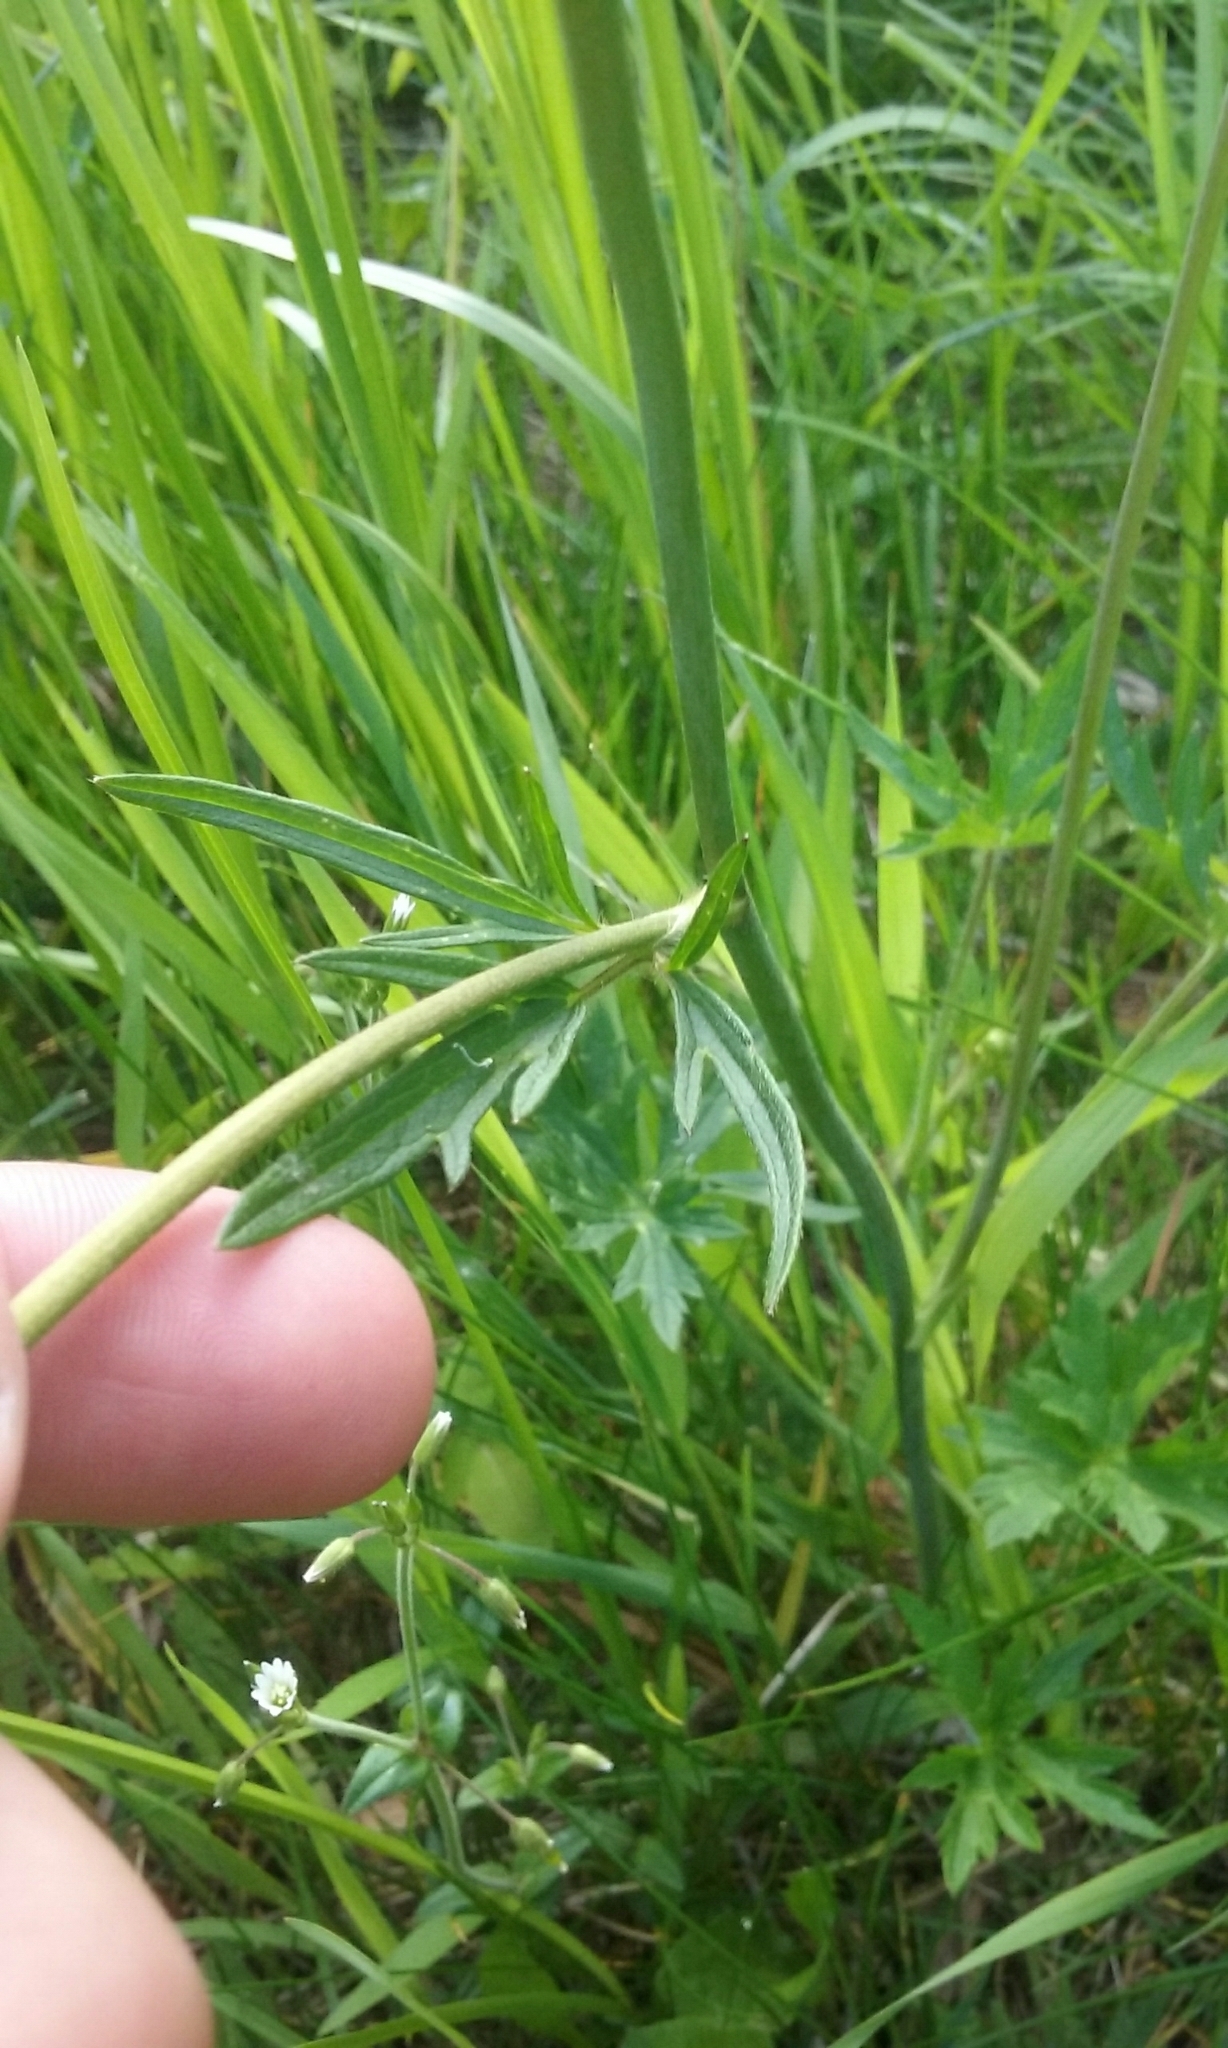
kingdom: Plantae
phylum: Tracheophyta
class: Magnoliopsida
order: Ranunculales
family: Ranunculaceae
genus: Ranunculus
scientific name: Ranunculus acris
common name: Meadow buttercup
